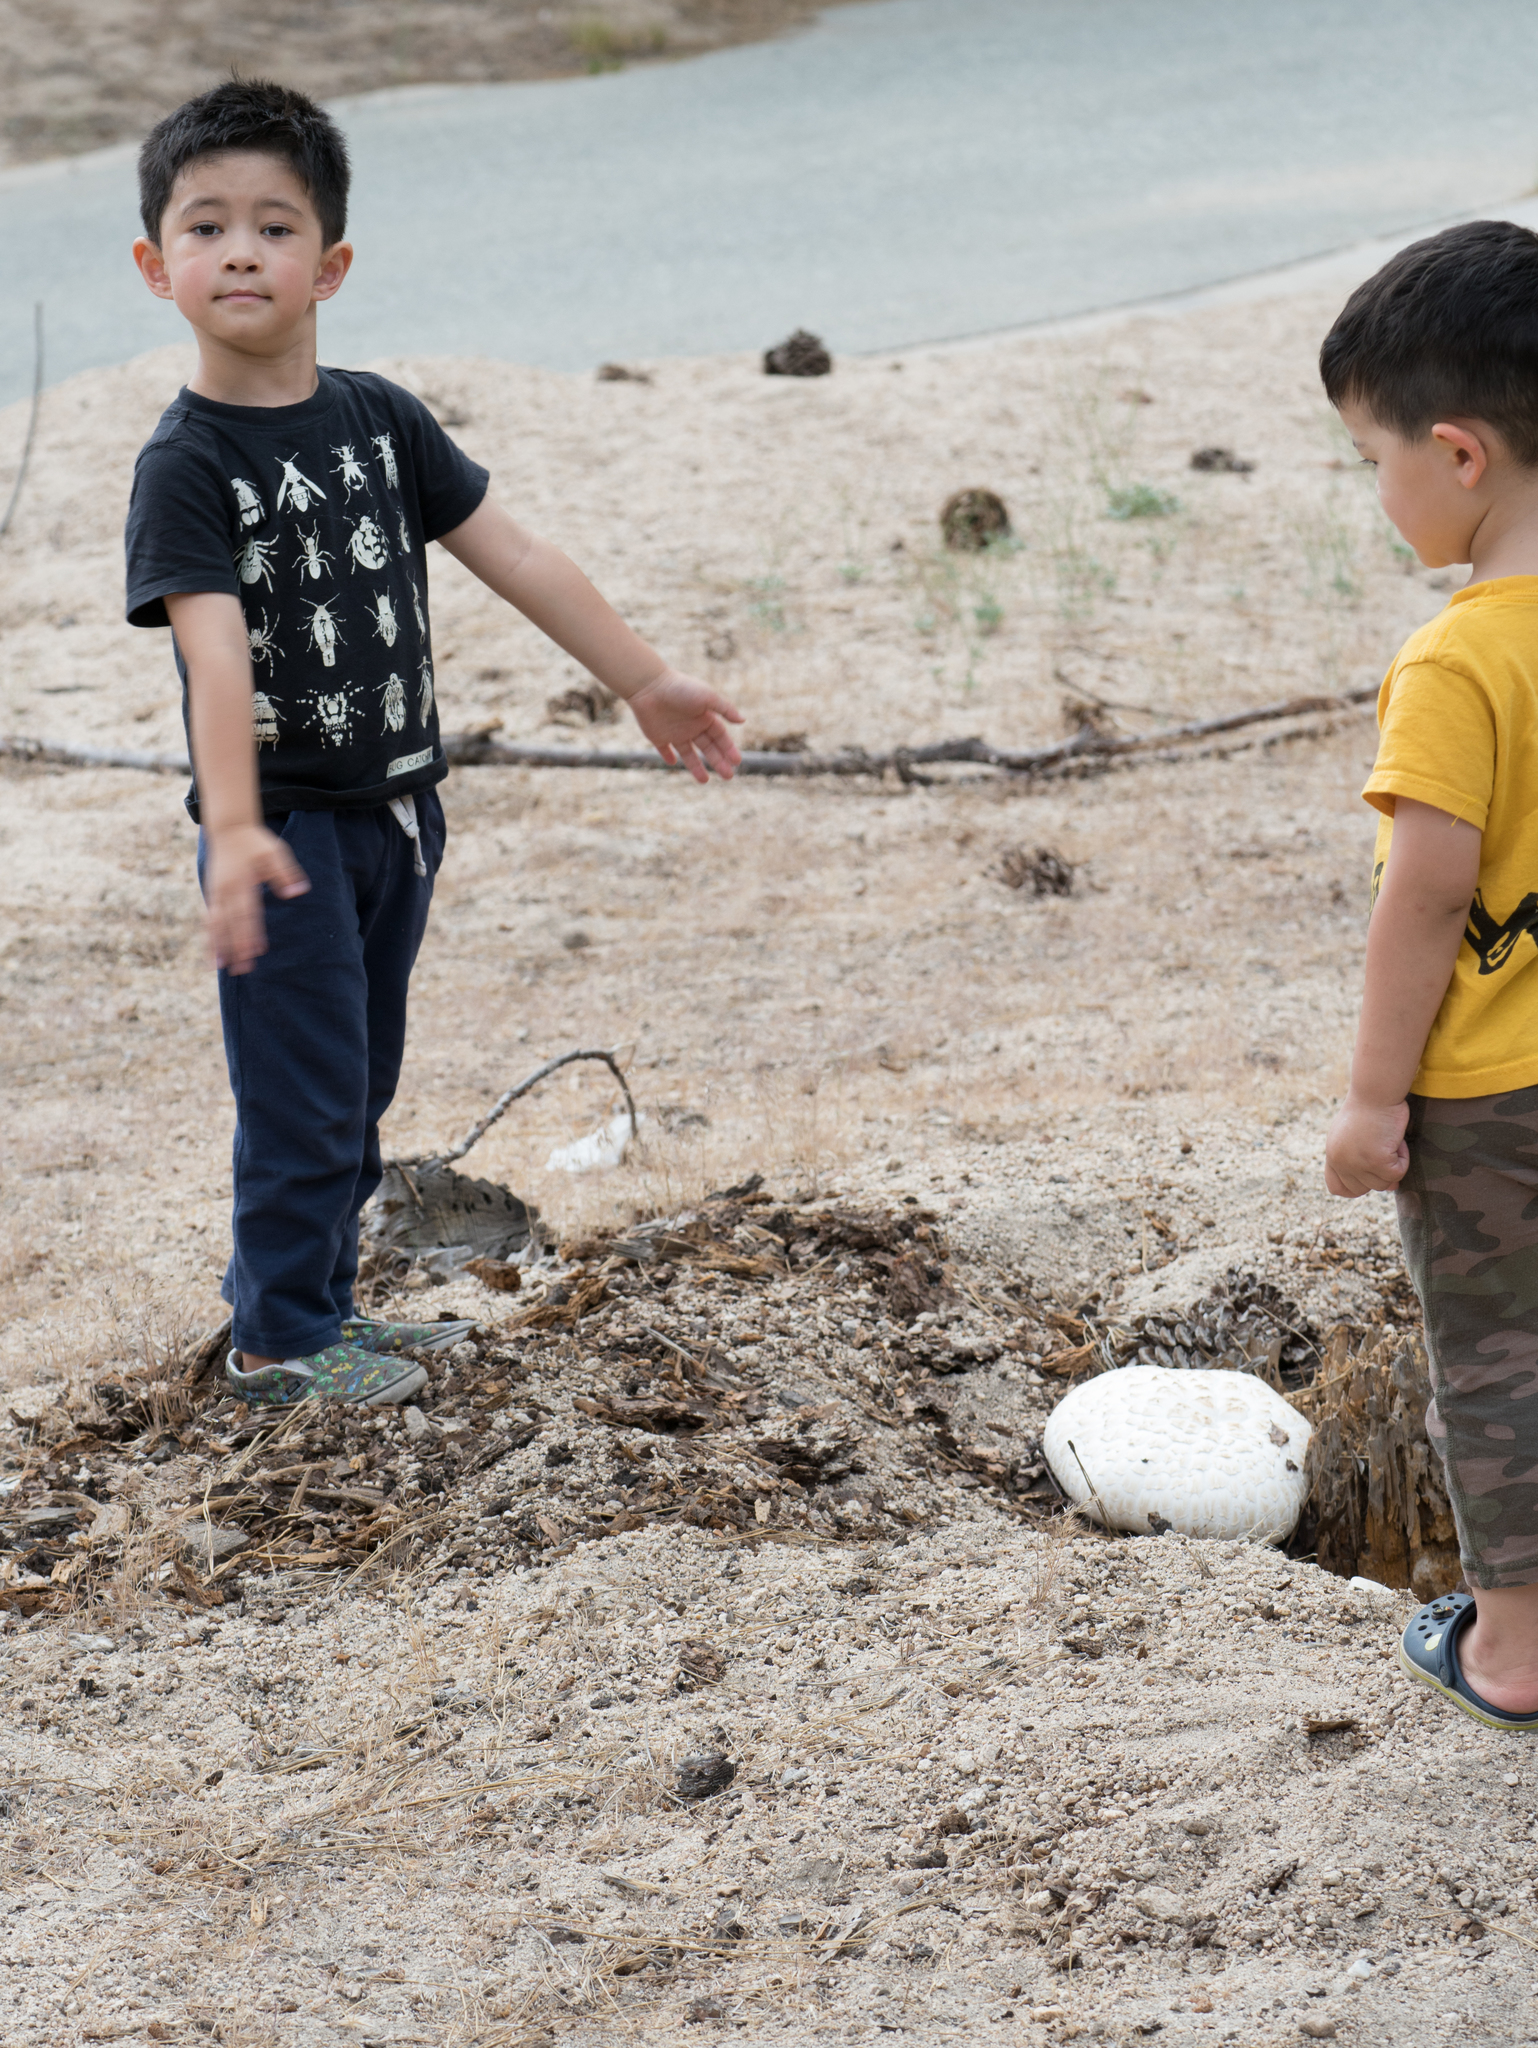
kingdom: Fungi
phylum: Basidiomycota
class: Agaricomycetes
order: Gloeophyllales
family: Gloeophyllaceae
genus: Neolentinus
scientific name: Neolentinus ponderosus
